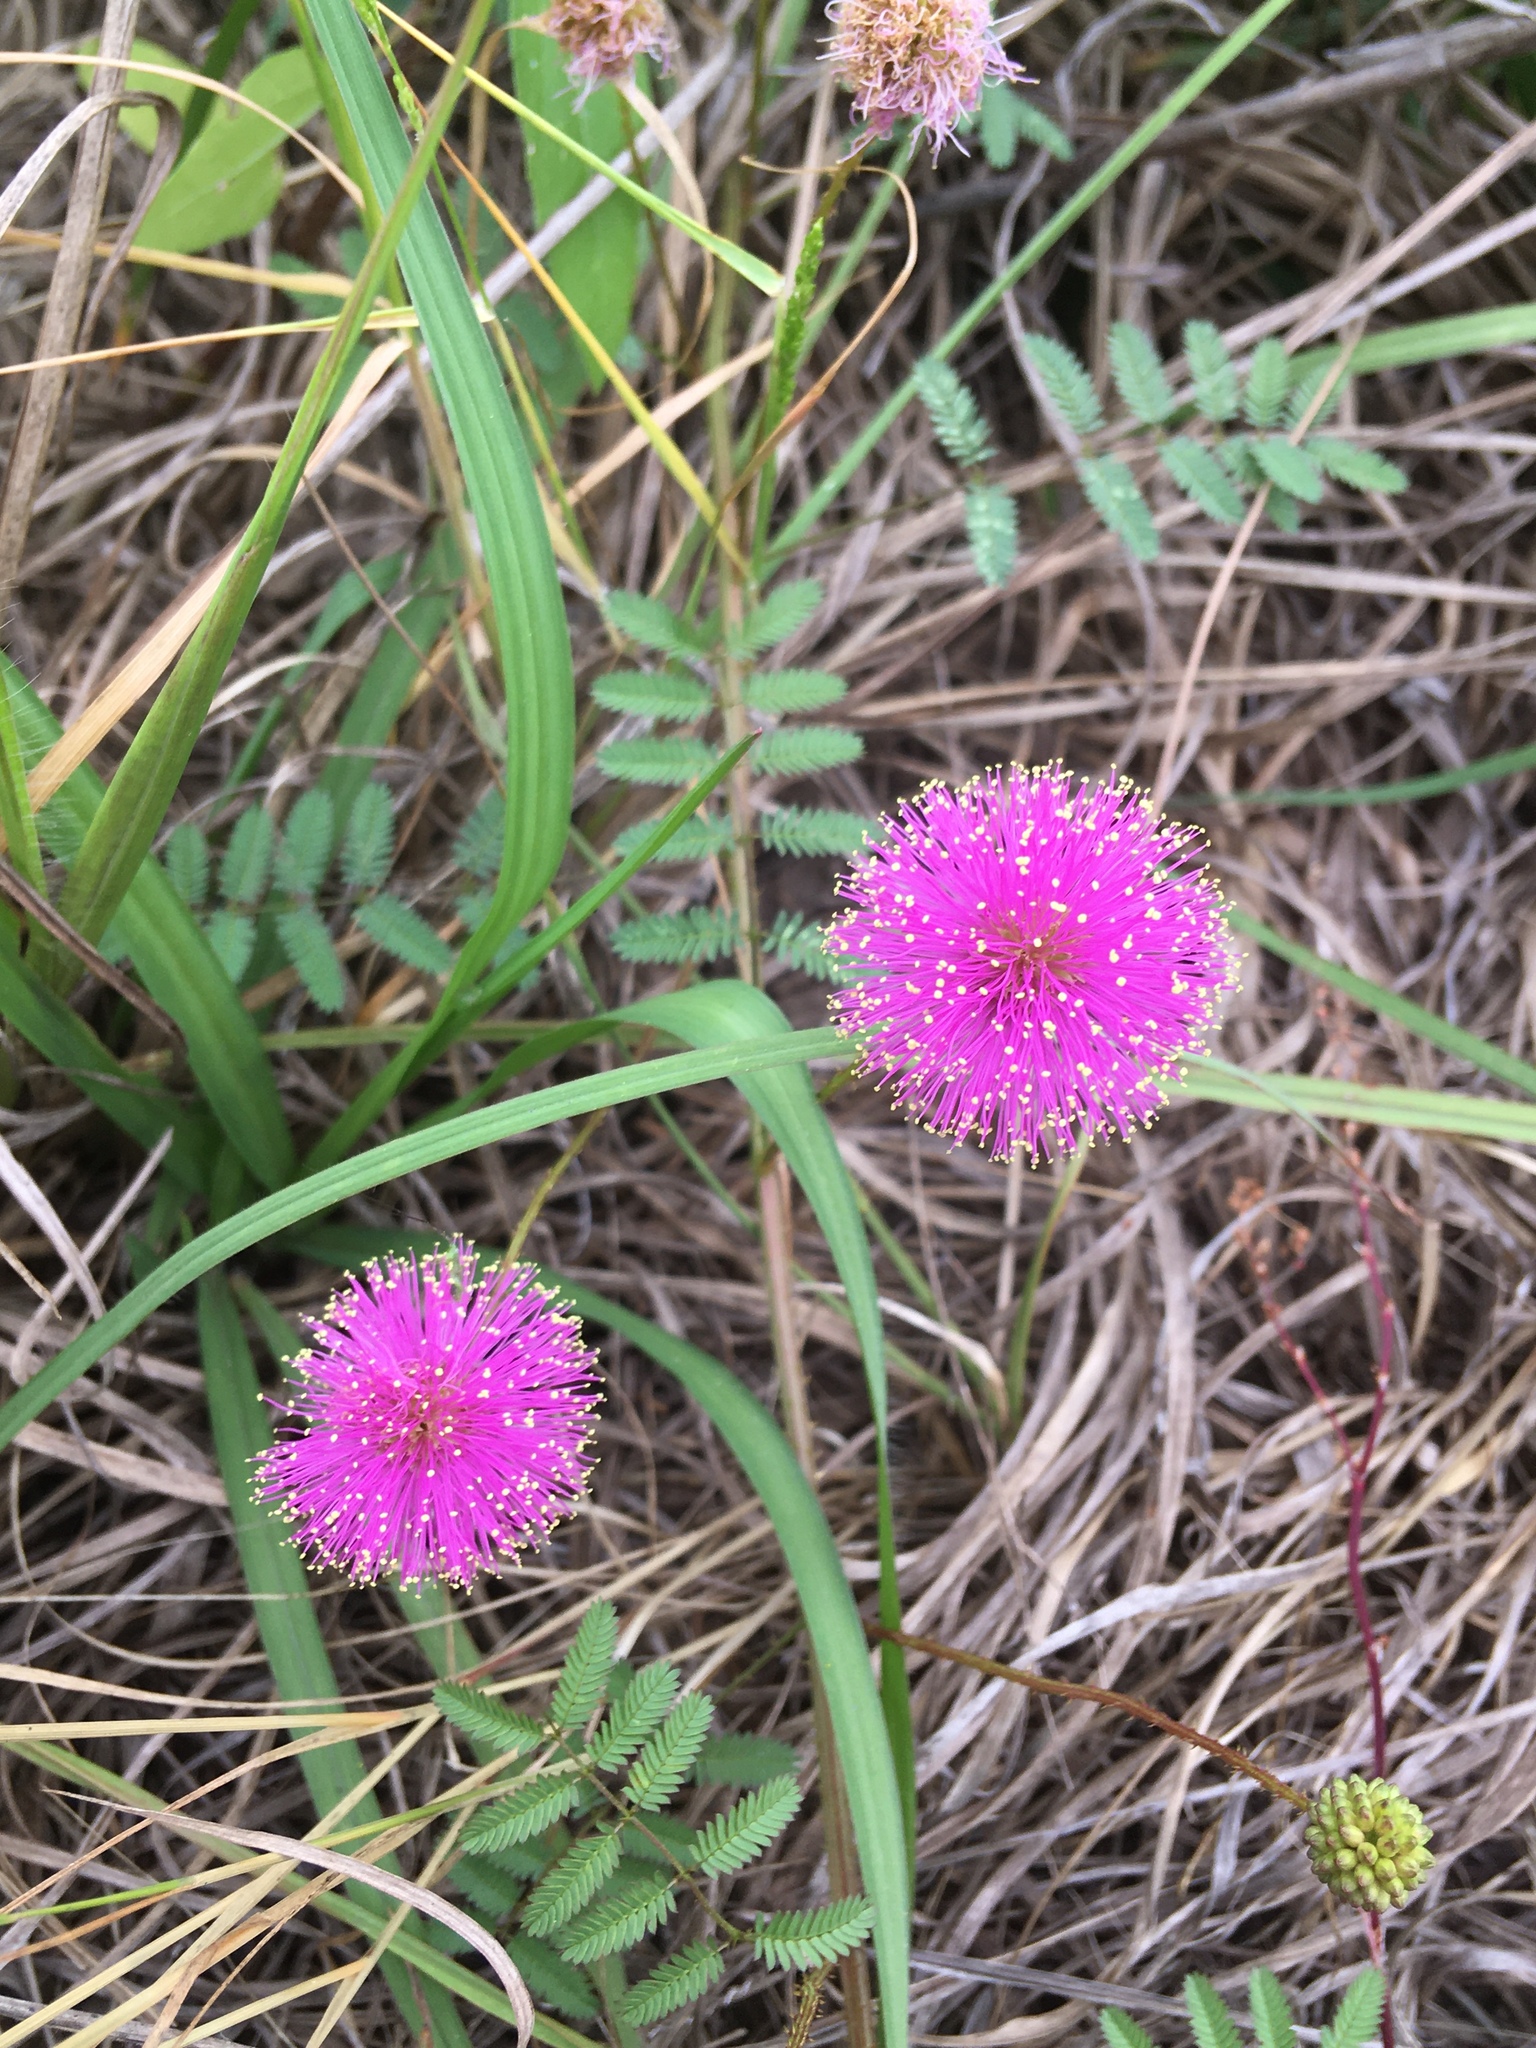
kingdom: Plantae
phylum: Tracheophyta
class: Magnoliopsida
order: Fabales
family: Fabaceae
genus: Mimosa
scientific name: Mimosa quadrivalvis
